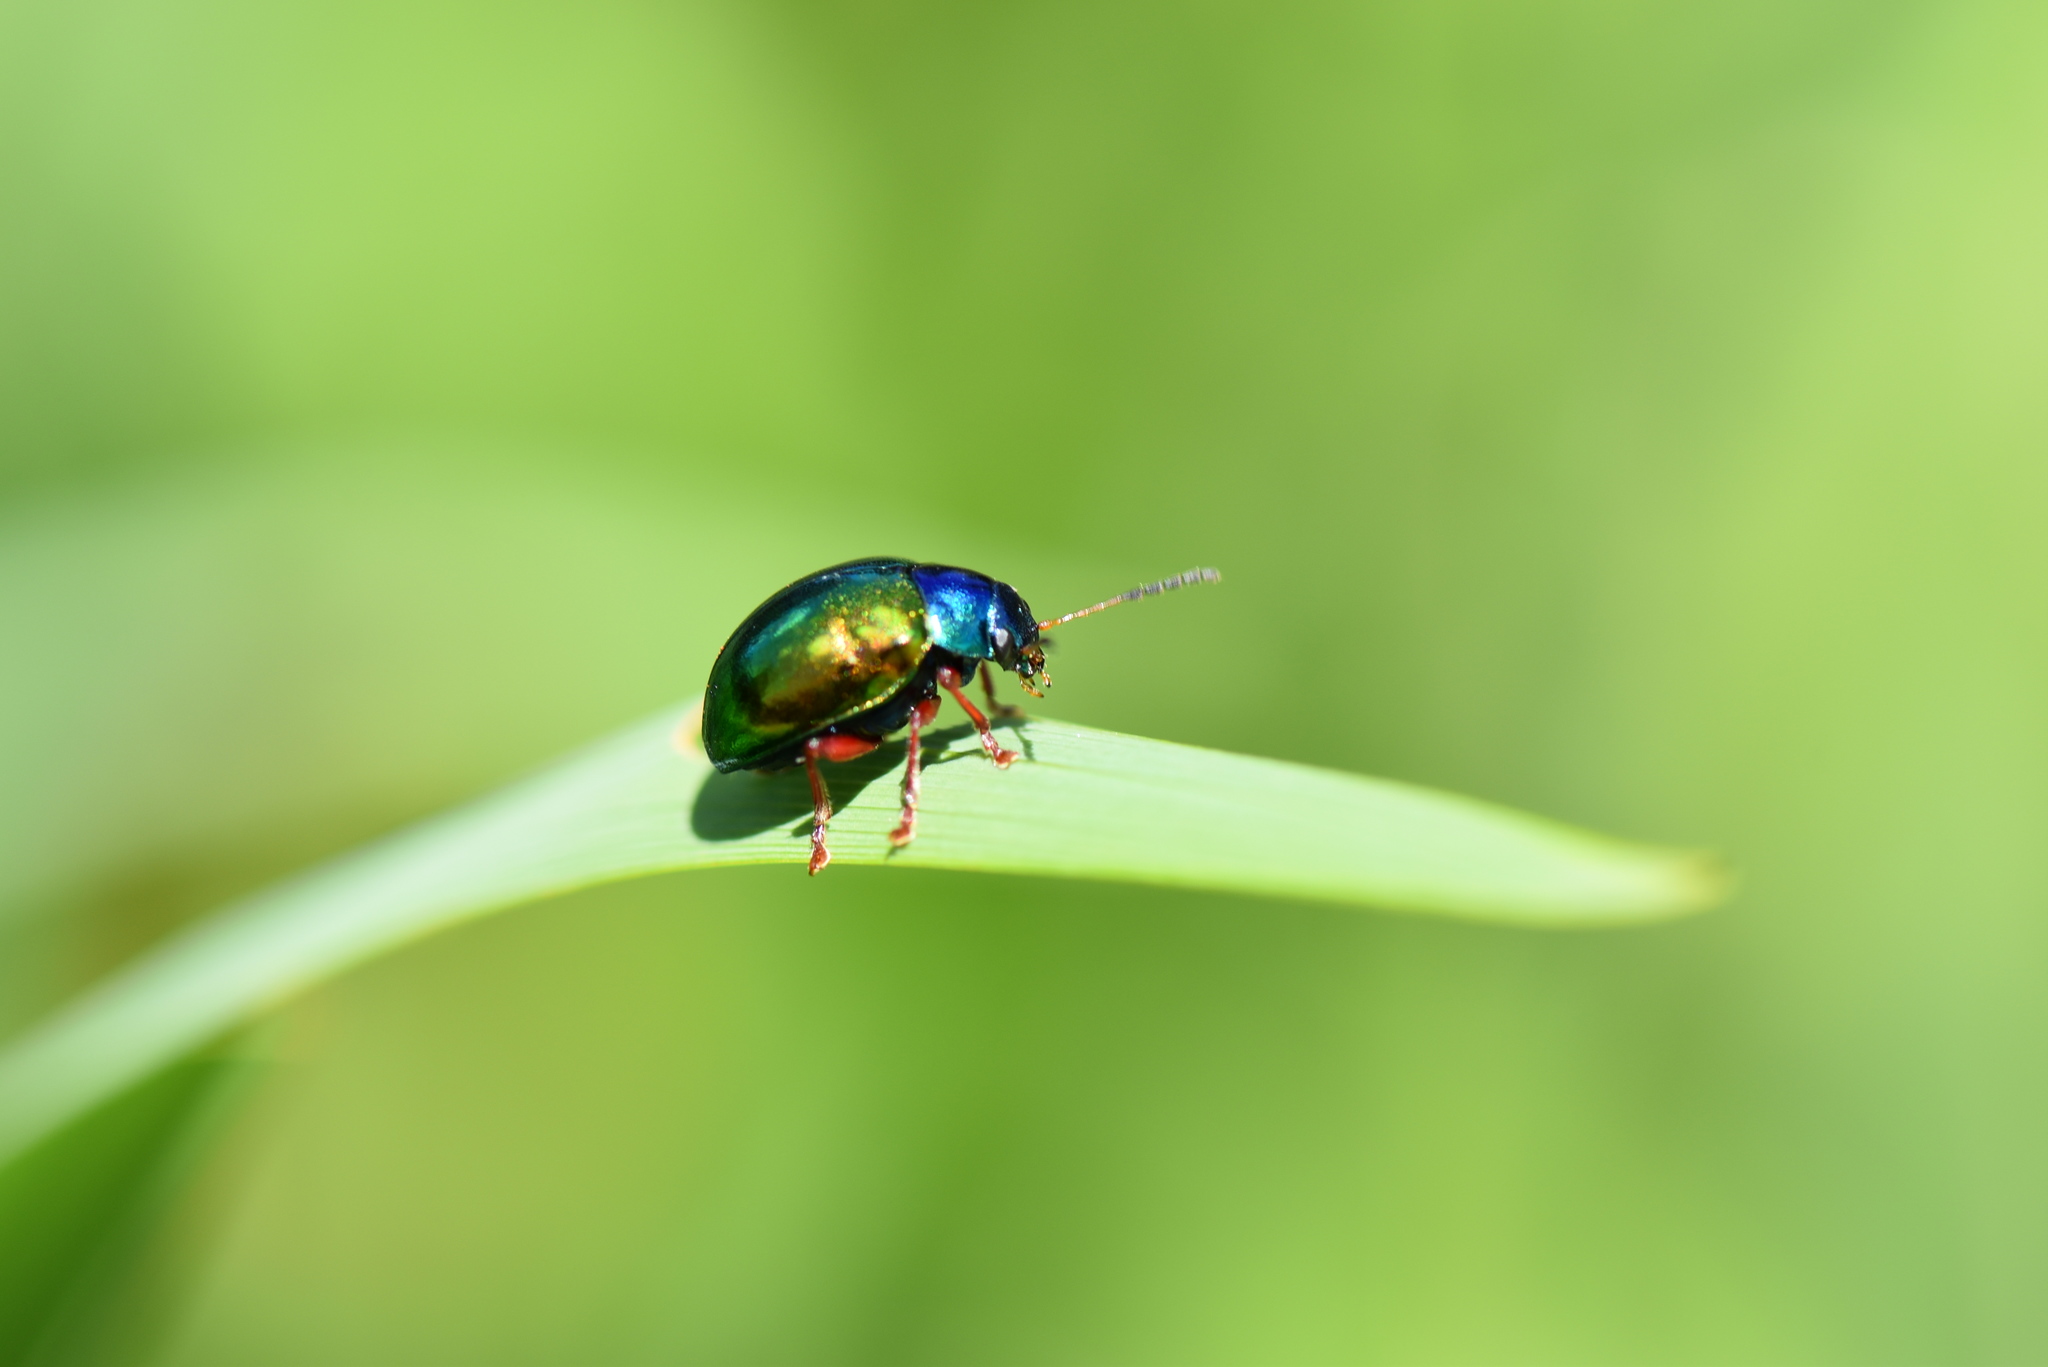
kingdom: Animalia
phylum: Arthropoda
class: Insecta
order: Coleoptera
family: Chrysomelidae
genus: Iphimeis
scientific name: Iphimeis
